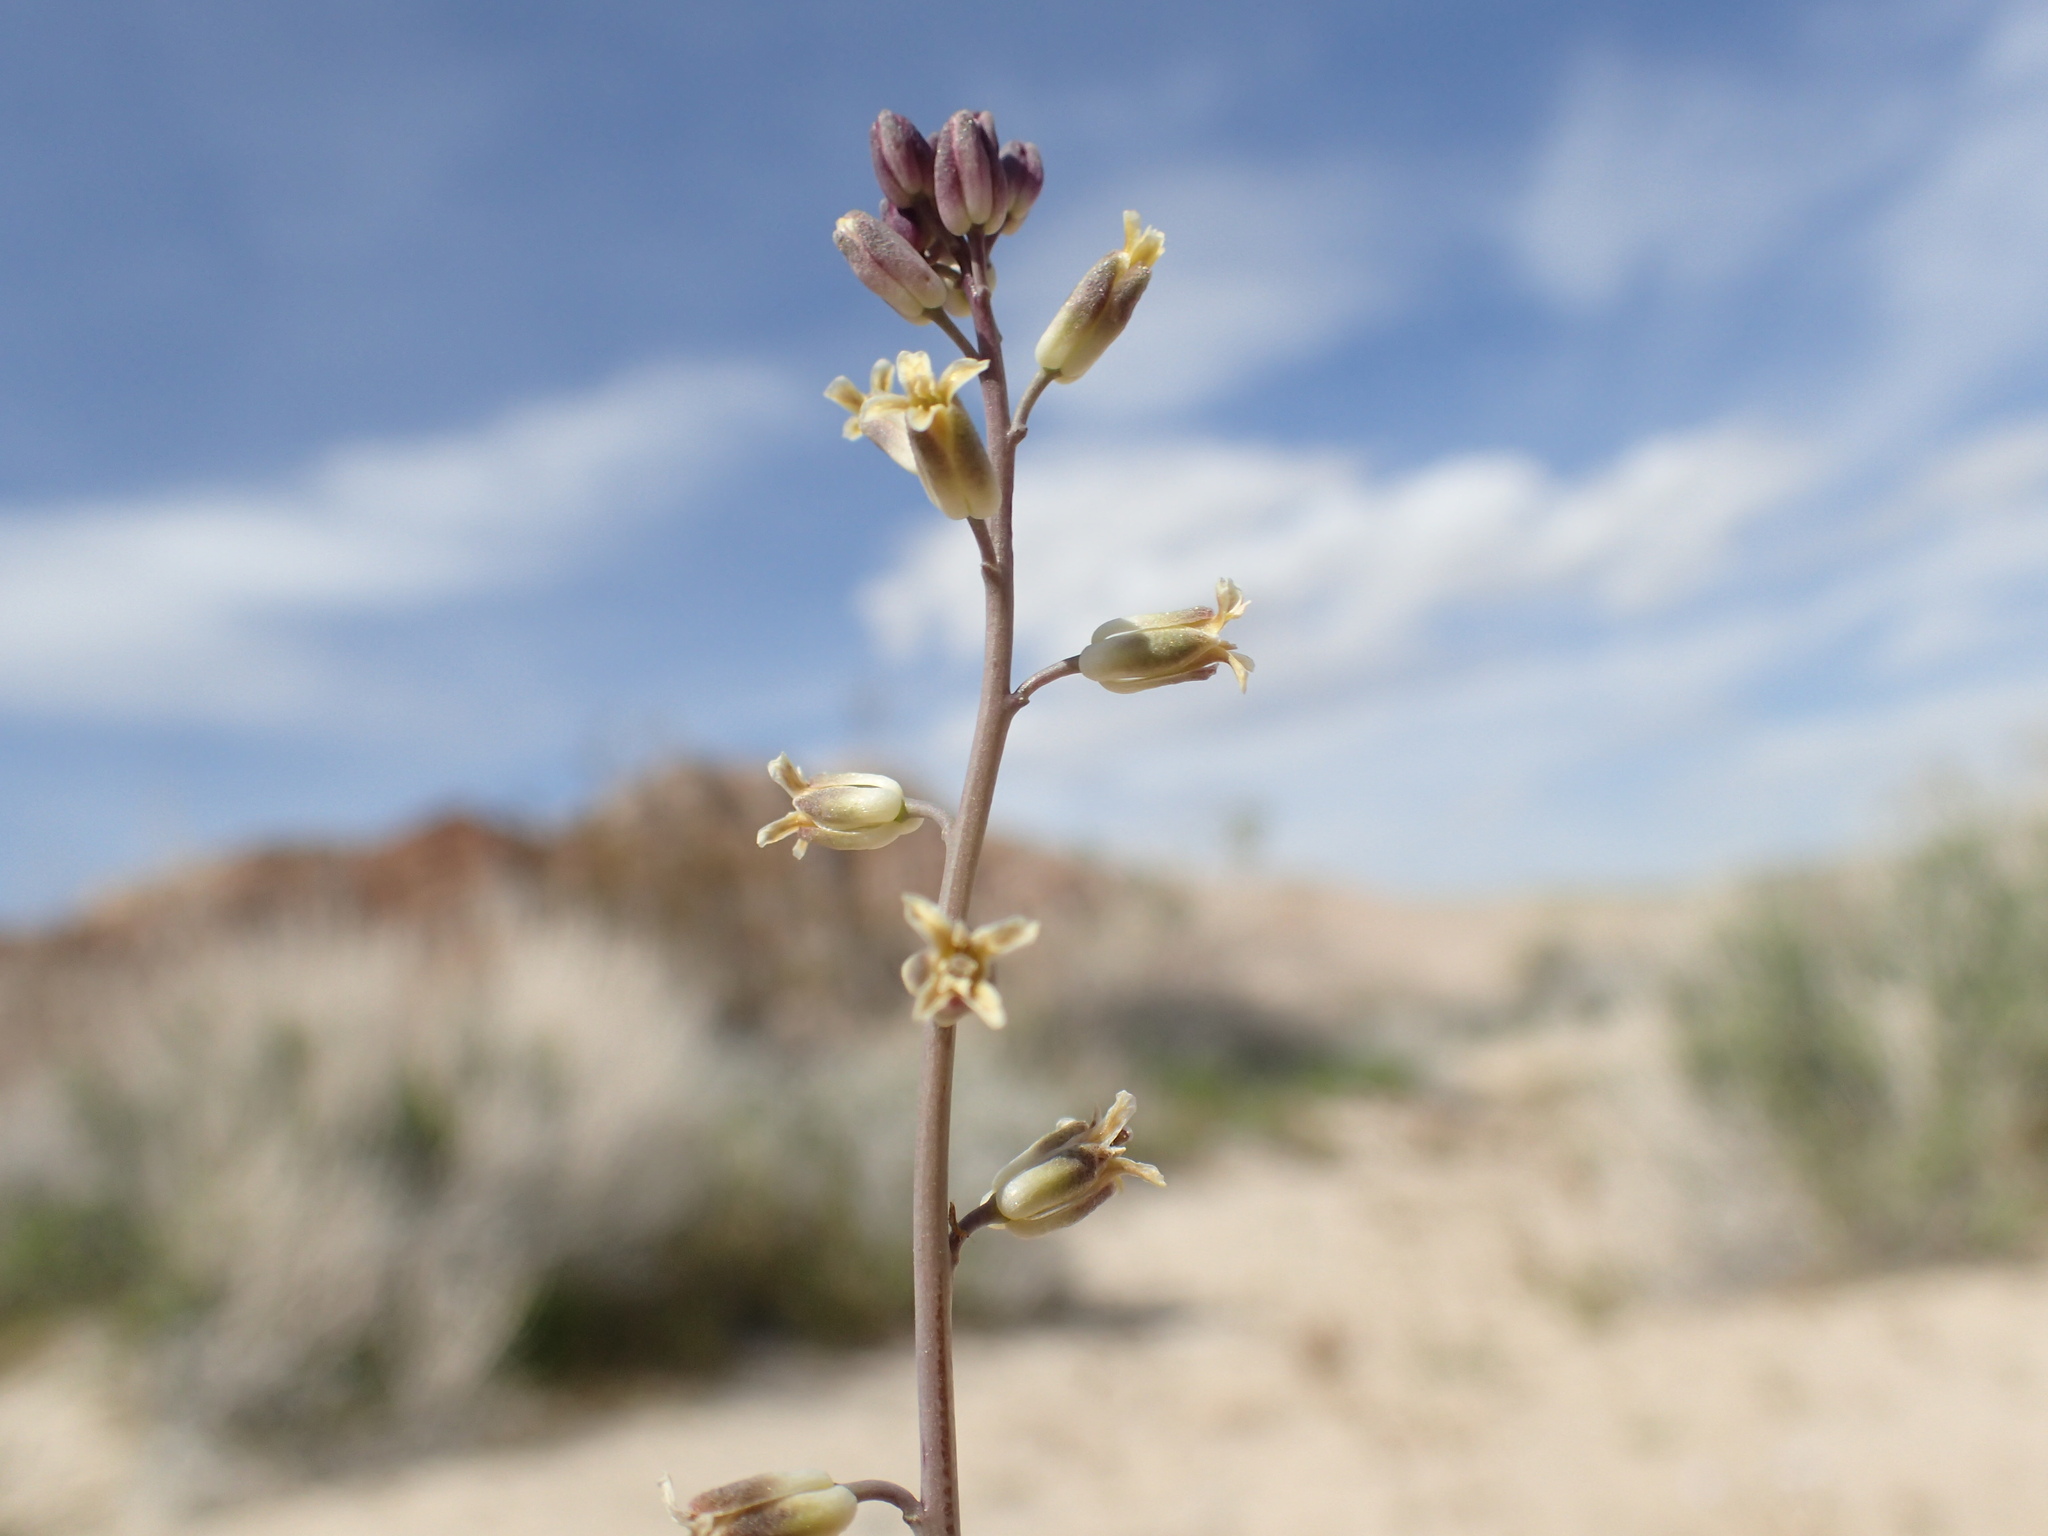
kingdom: Plantae
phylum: Tracheophyta
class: Magnoliopsida
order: Brassicales
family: Brassicaceae
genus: Streptanthus
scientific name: Streptanthus longirostris
